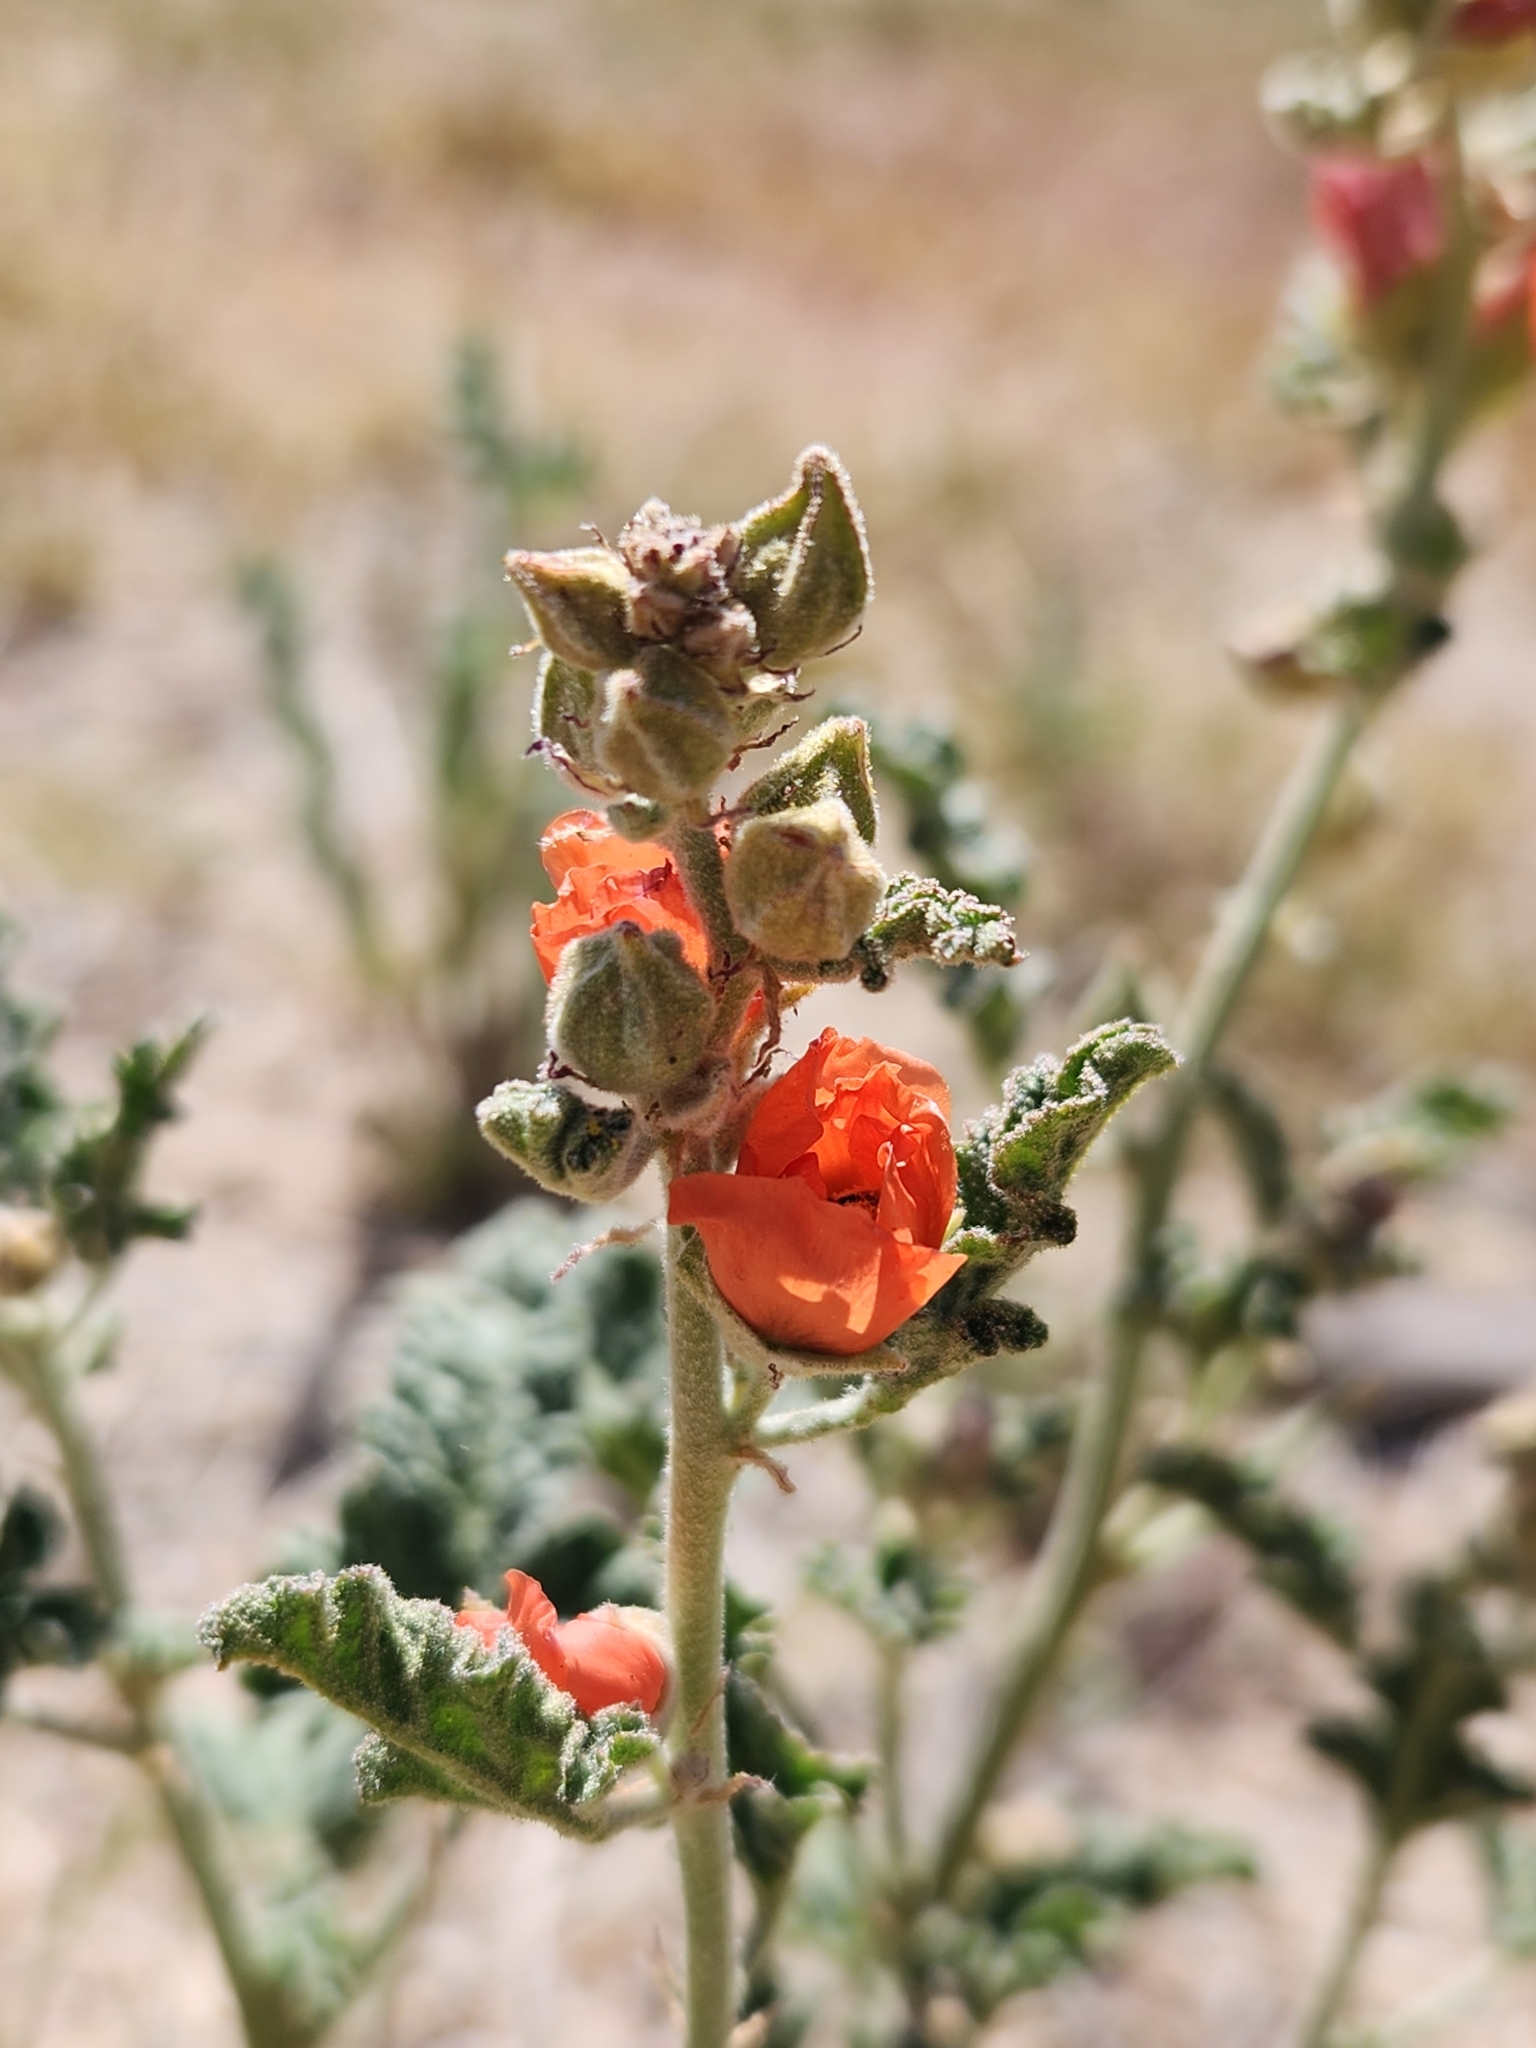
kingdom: Plantae
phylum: Tracheophyta
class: Magnoliopsida
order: Malvales
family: Malvaceae
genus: Sphaeralcea
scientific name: Sphaeralcea ambigua
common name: Apricot globe-mallow
